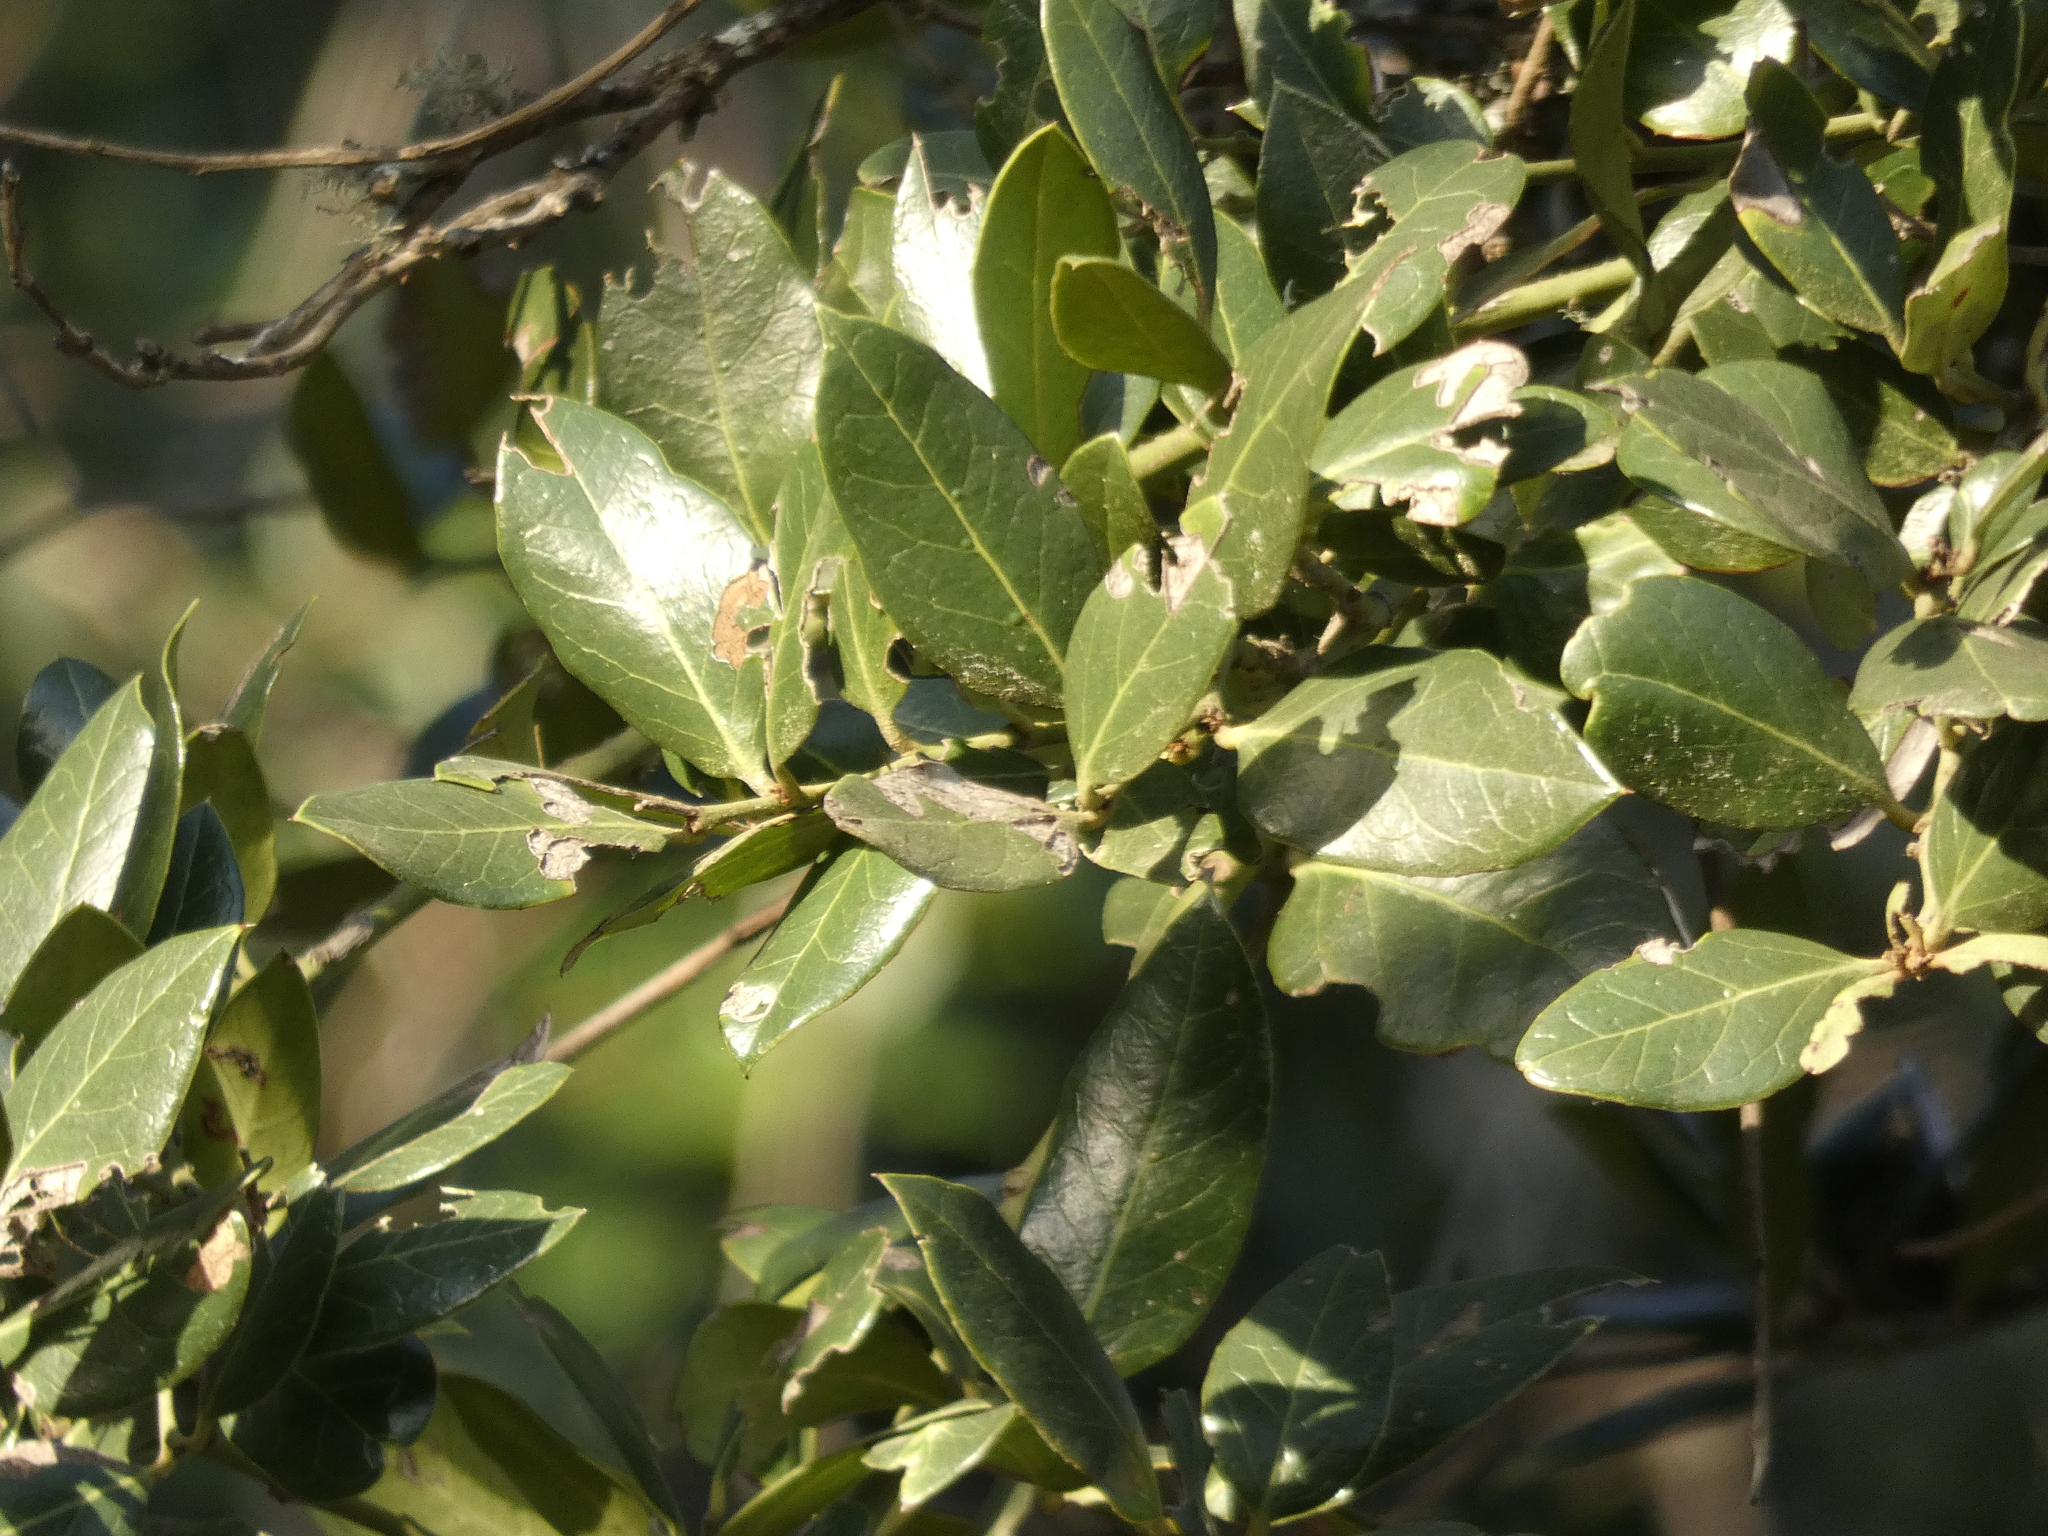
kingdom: Plantae
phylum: Tracheophyta
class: Magnoliopsida
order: Cardiopteridales
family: Cardiopteridaceae
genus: Citronella
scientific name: Citronella mucronata
